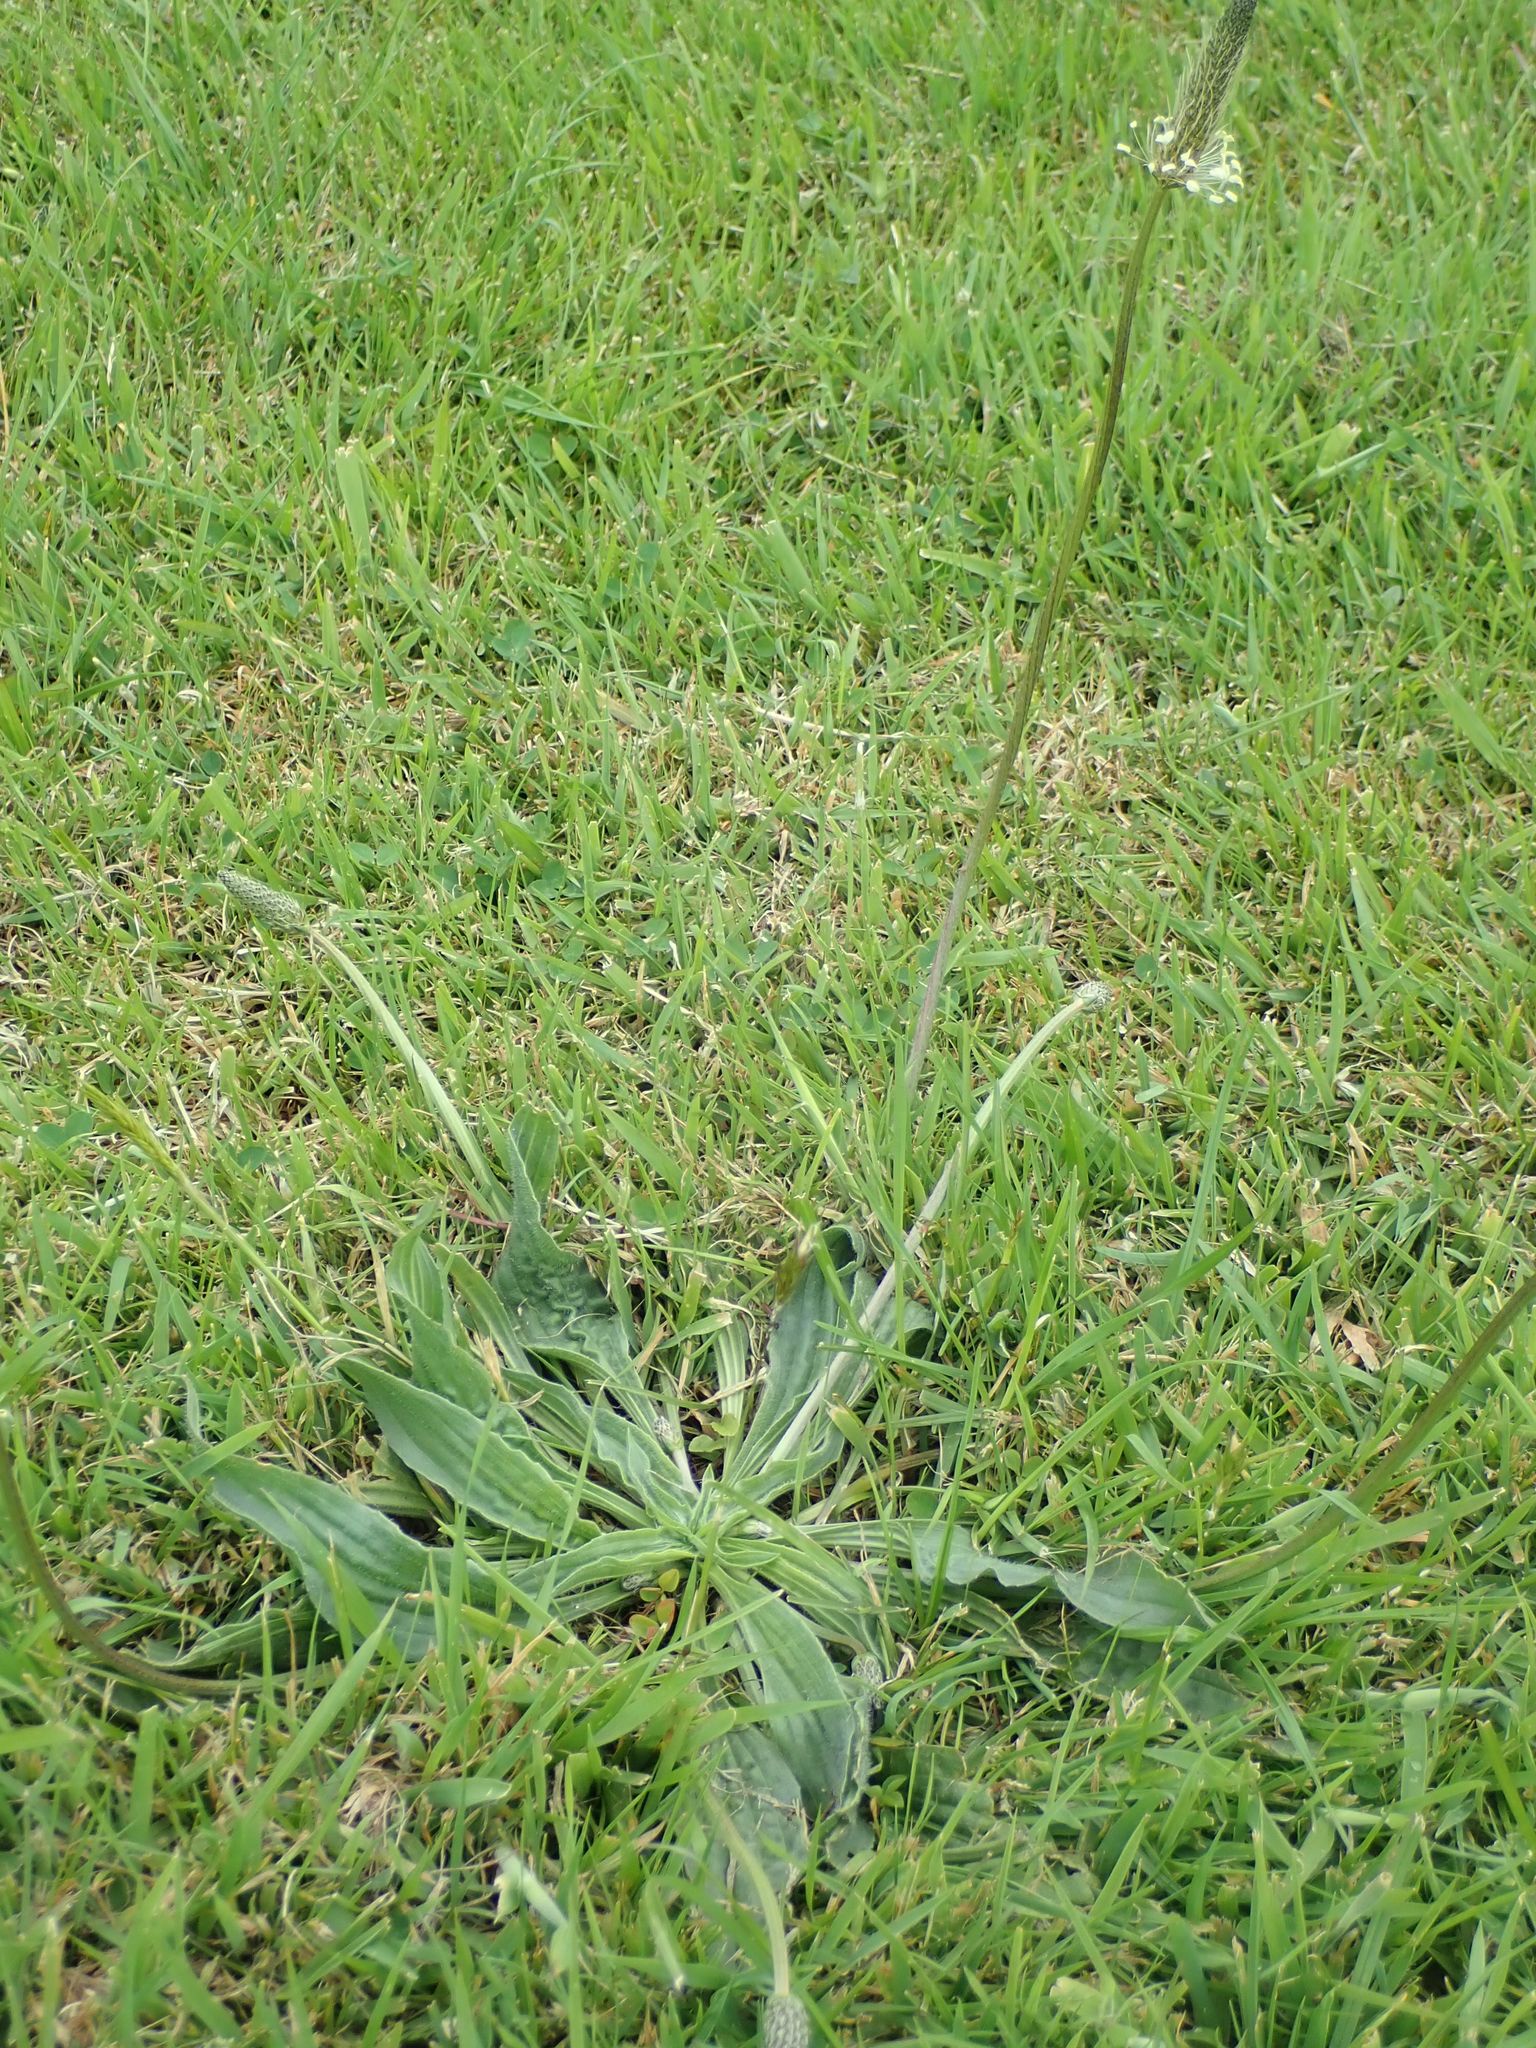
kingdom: Plantae
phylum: Tracheophyta
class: Magnoliopsida
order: Lamiales
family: Plantaginaceae
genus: Plantago
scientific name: Plantago lanceolata
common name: Ribwort plantain
